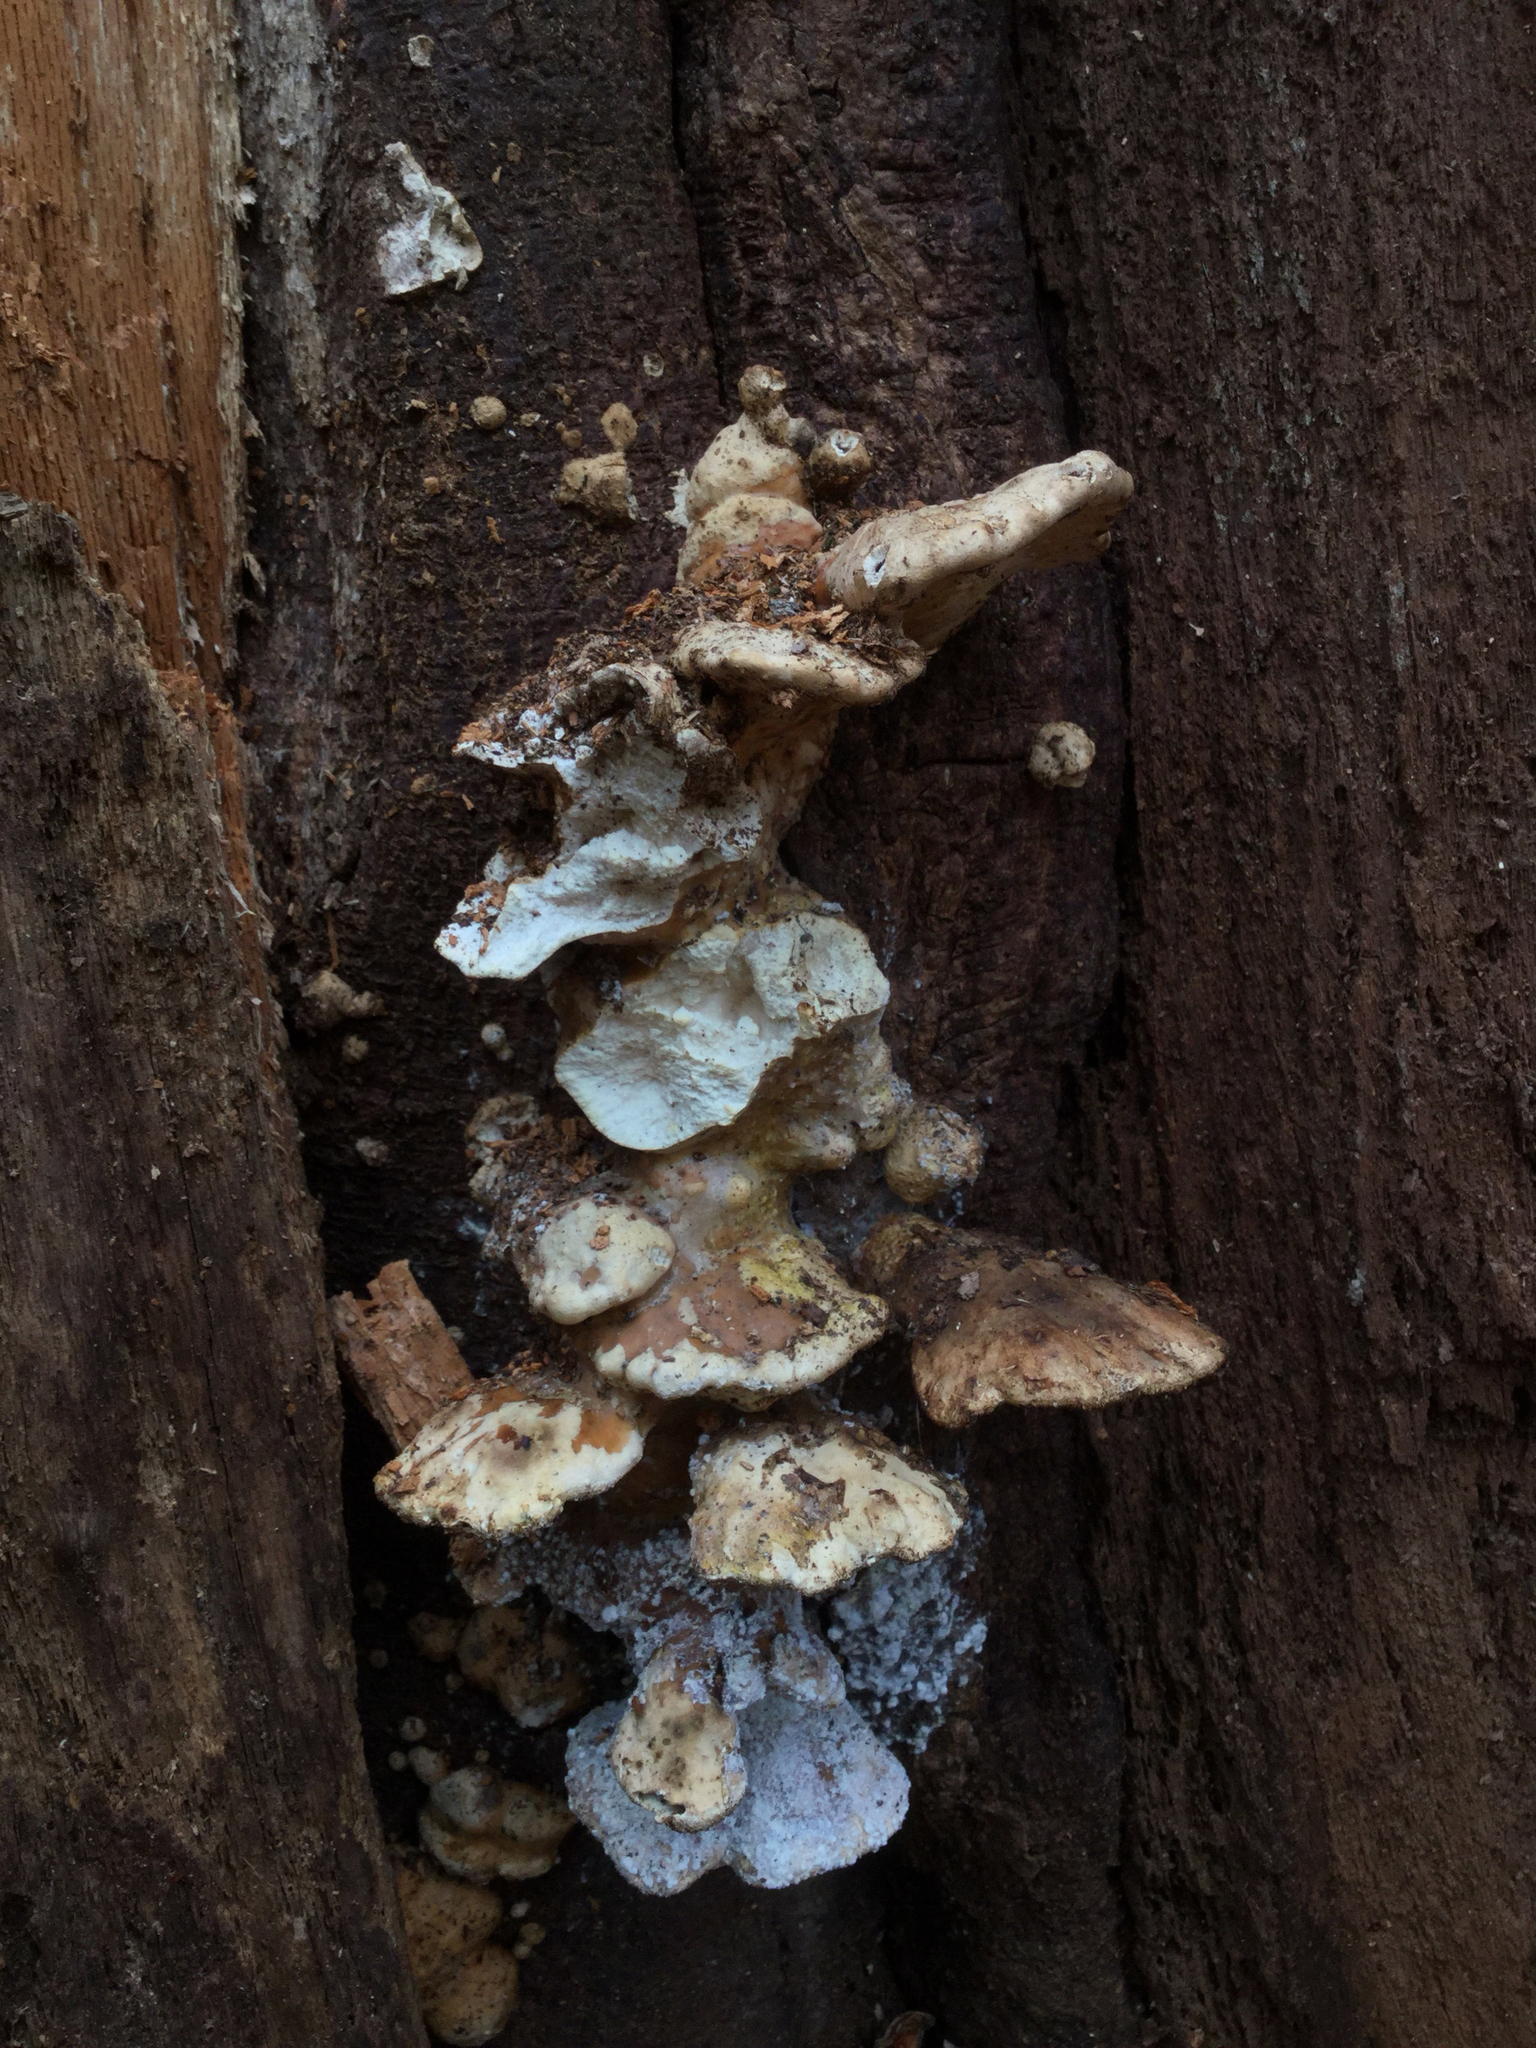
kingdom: Fungi
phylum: Basidiomycota
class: Agaricomycetes
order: Polyporales
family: Laetiporaceae
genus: Laetiporus
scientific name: Laetiporus sulphureus
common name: Chicken of the woods
